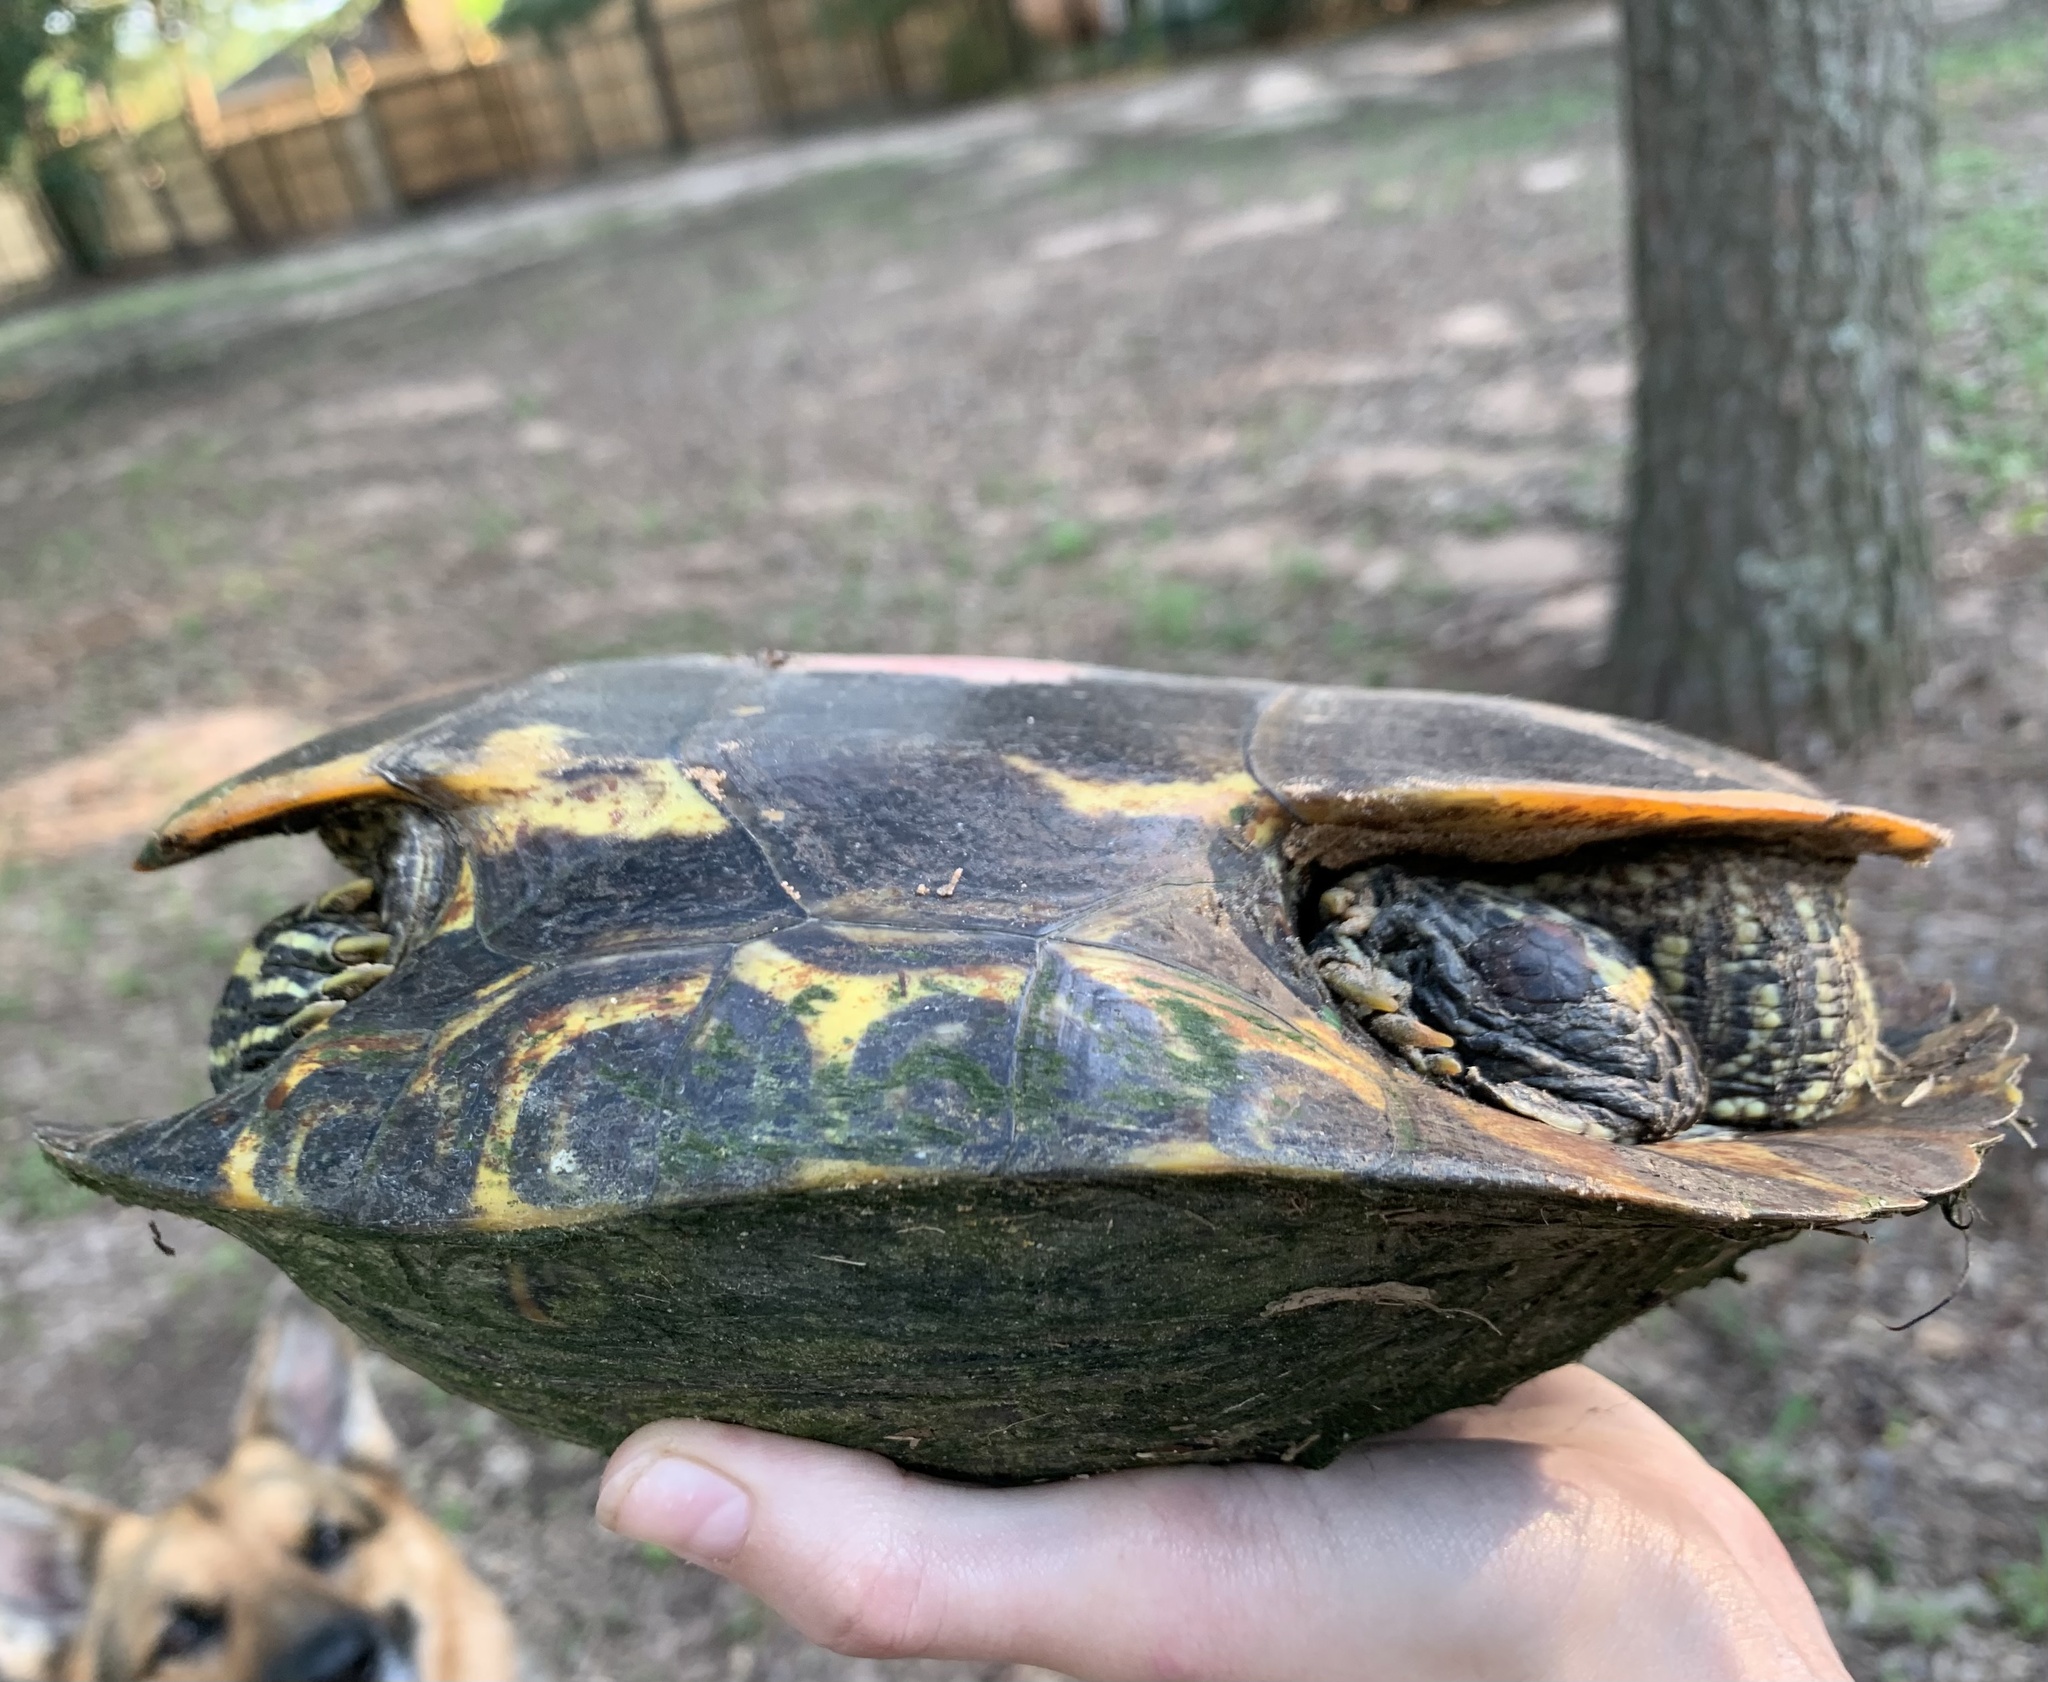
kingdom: Animalia
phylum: Chordata
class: Testudines
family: Emydidae
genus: Trachemys
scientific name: Trachemys scripta
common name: Slider
